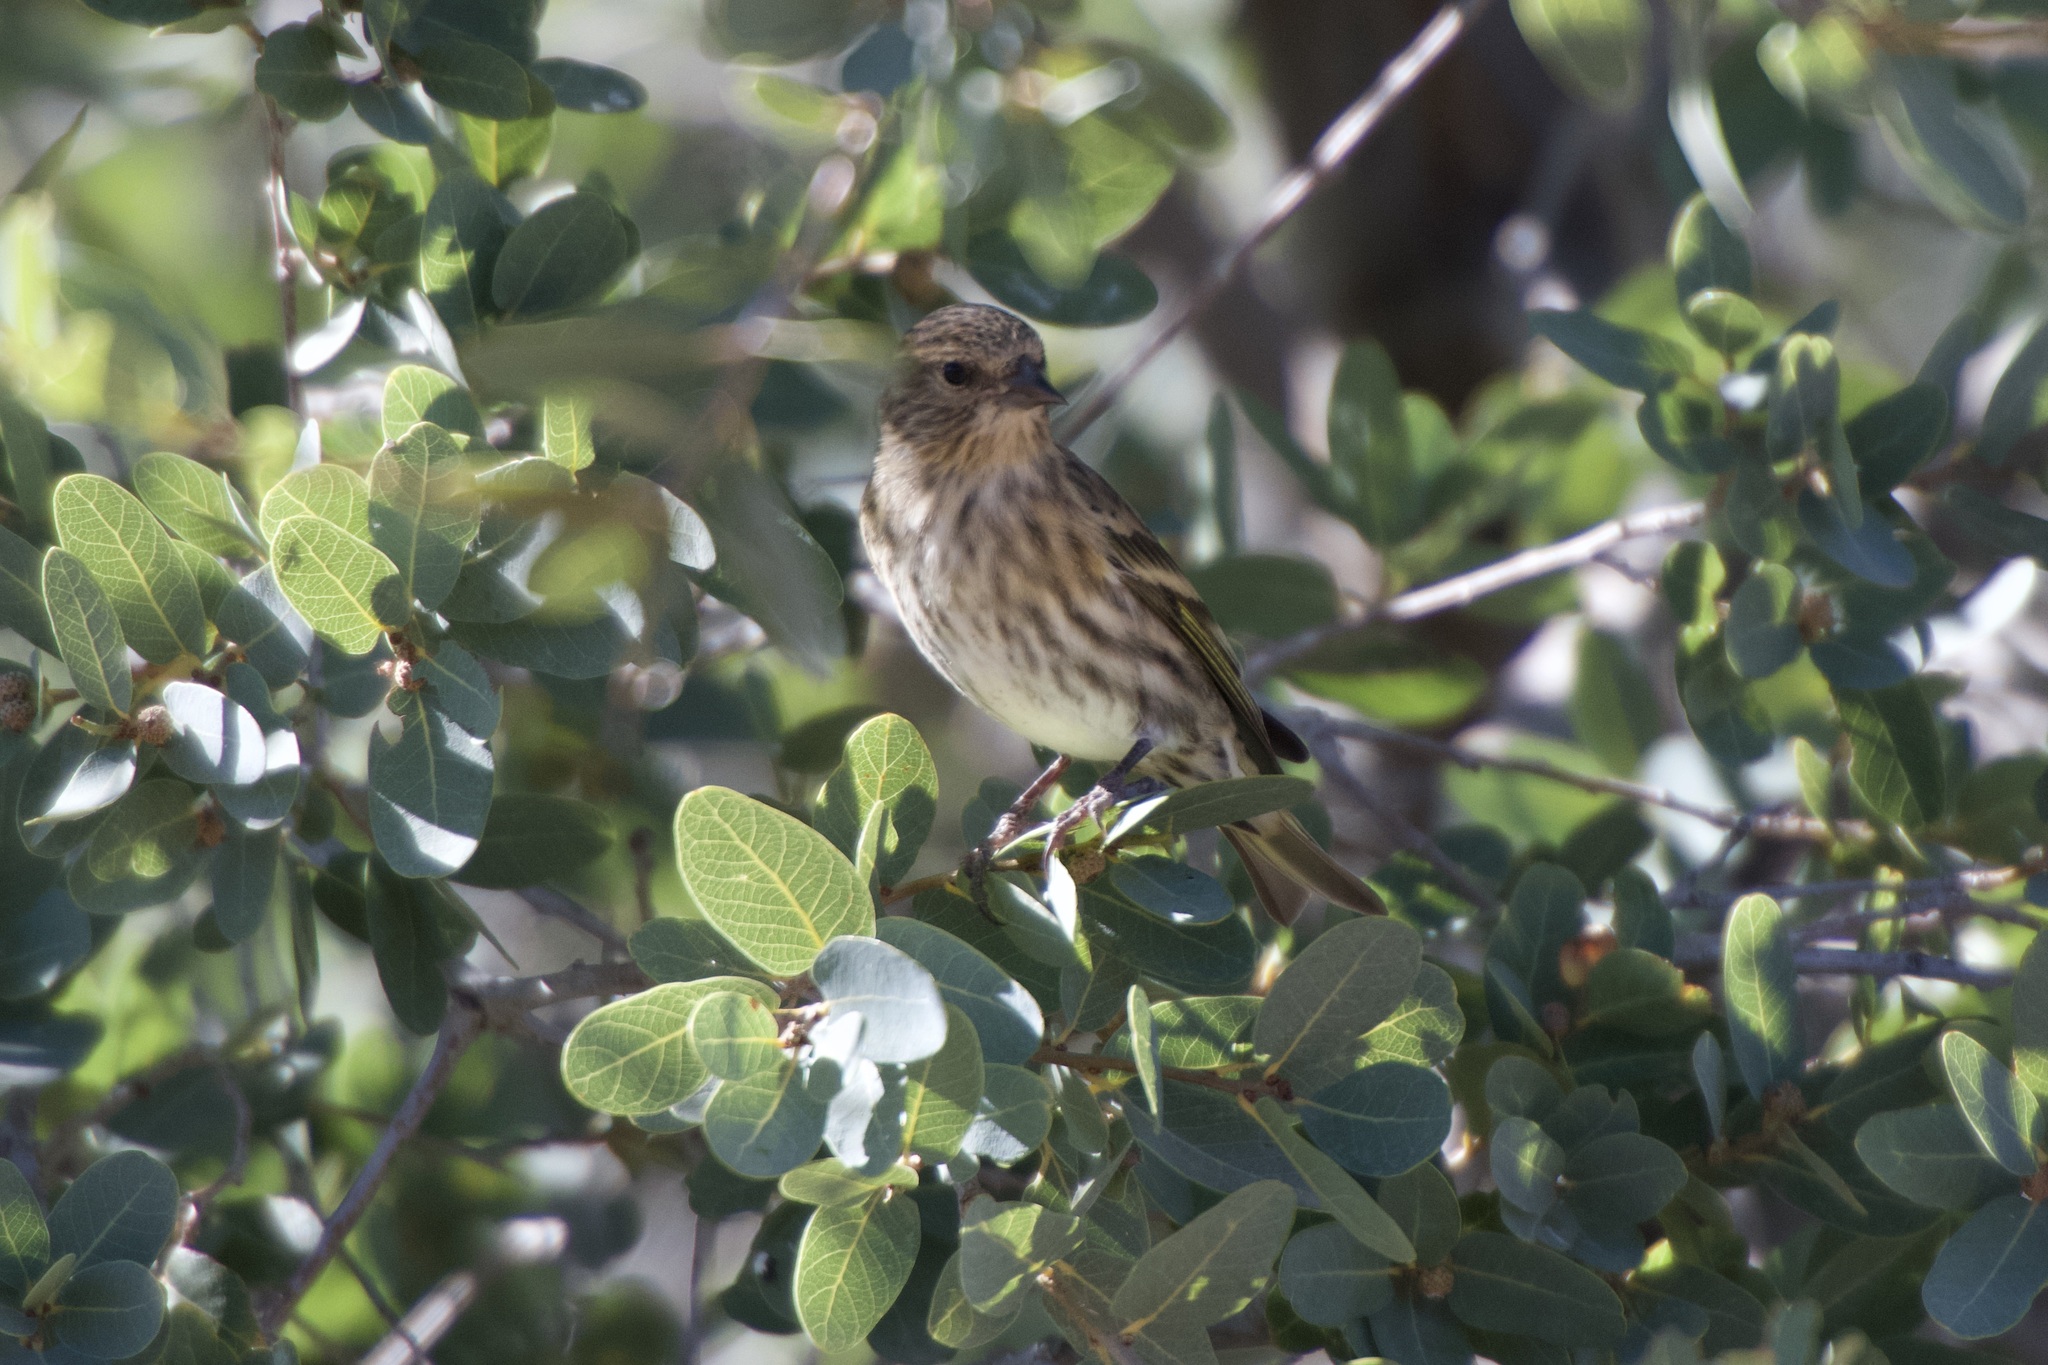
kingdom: Animalia
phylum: Chordata
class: Aves
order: Passeriformes
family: Fringillidae
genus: Spinus
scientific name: Spinus pinus
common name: Pine siskin
